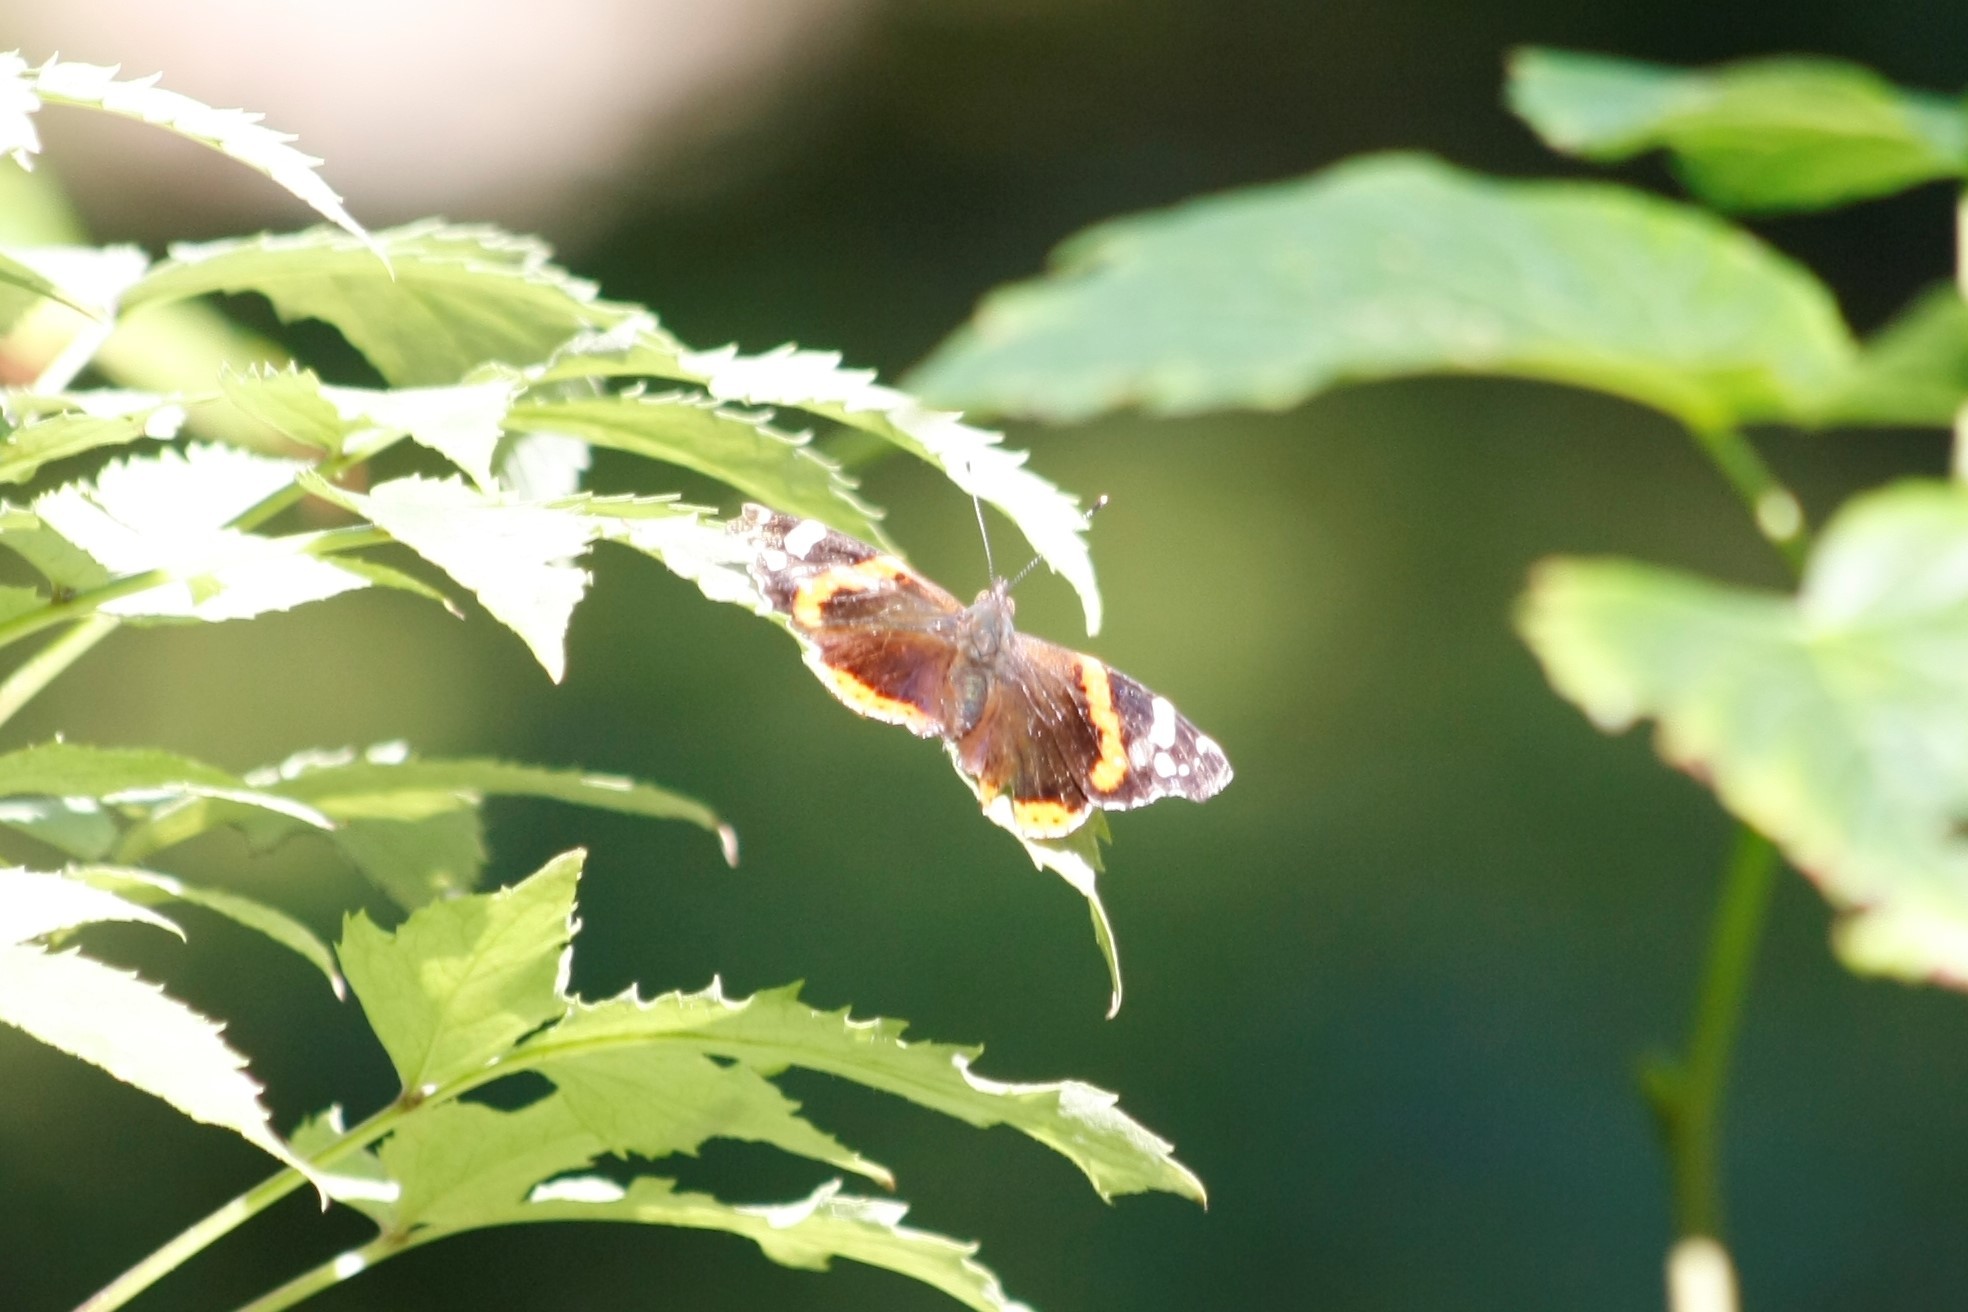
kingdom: Animalia
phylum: Arthropoda
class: Insecta
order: Lepidoptera
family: Nymphalidae
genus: Vanessa
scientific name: Vanessa atalanta
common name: Red admiral
